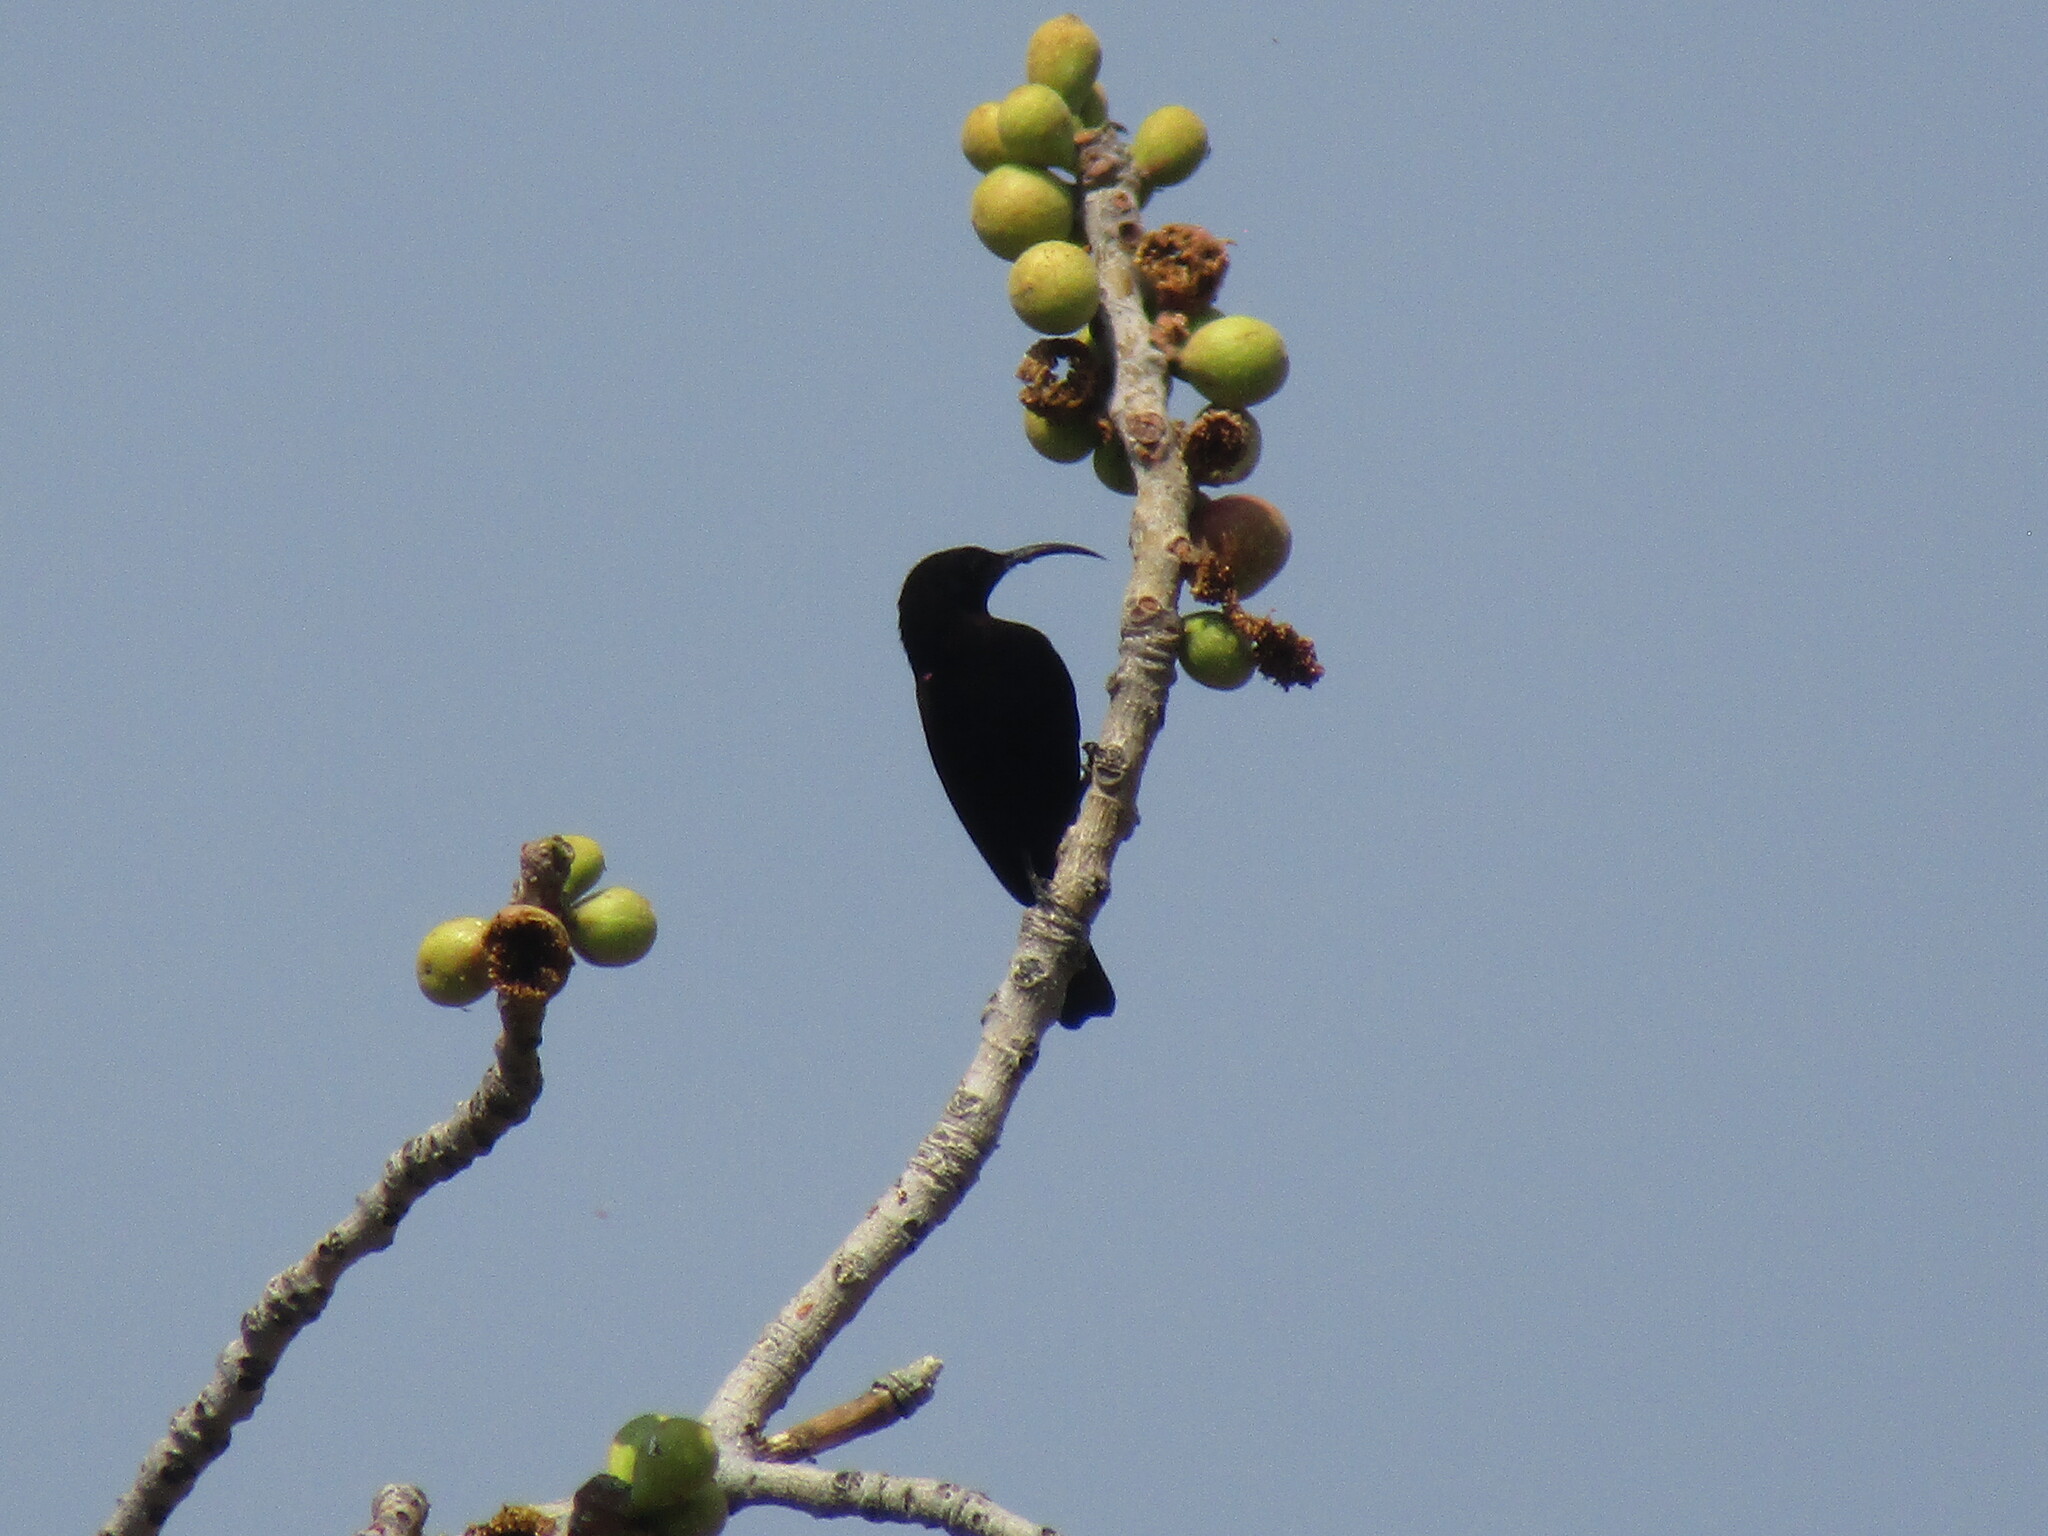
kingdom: Animalia
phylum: Chordata
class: Aves
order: Passeriformes
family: Nectariniidae
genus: Chalcomitra
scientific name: Chalcomitra amethystina
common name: Amethyst sunbird
